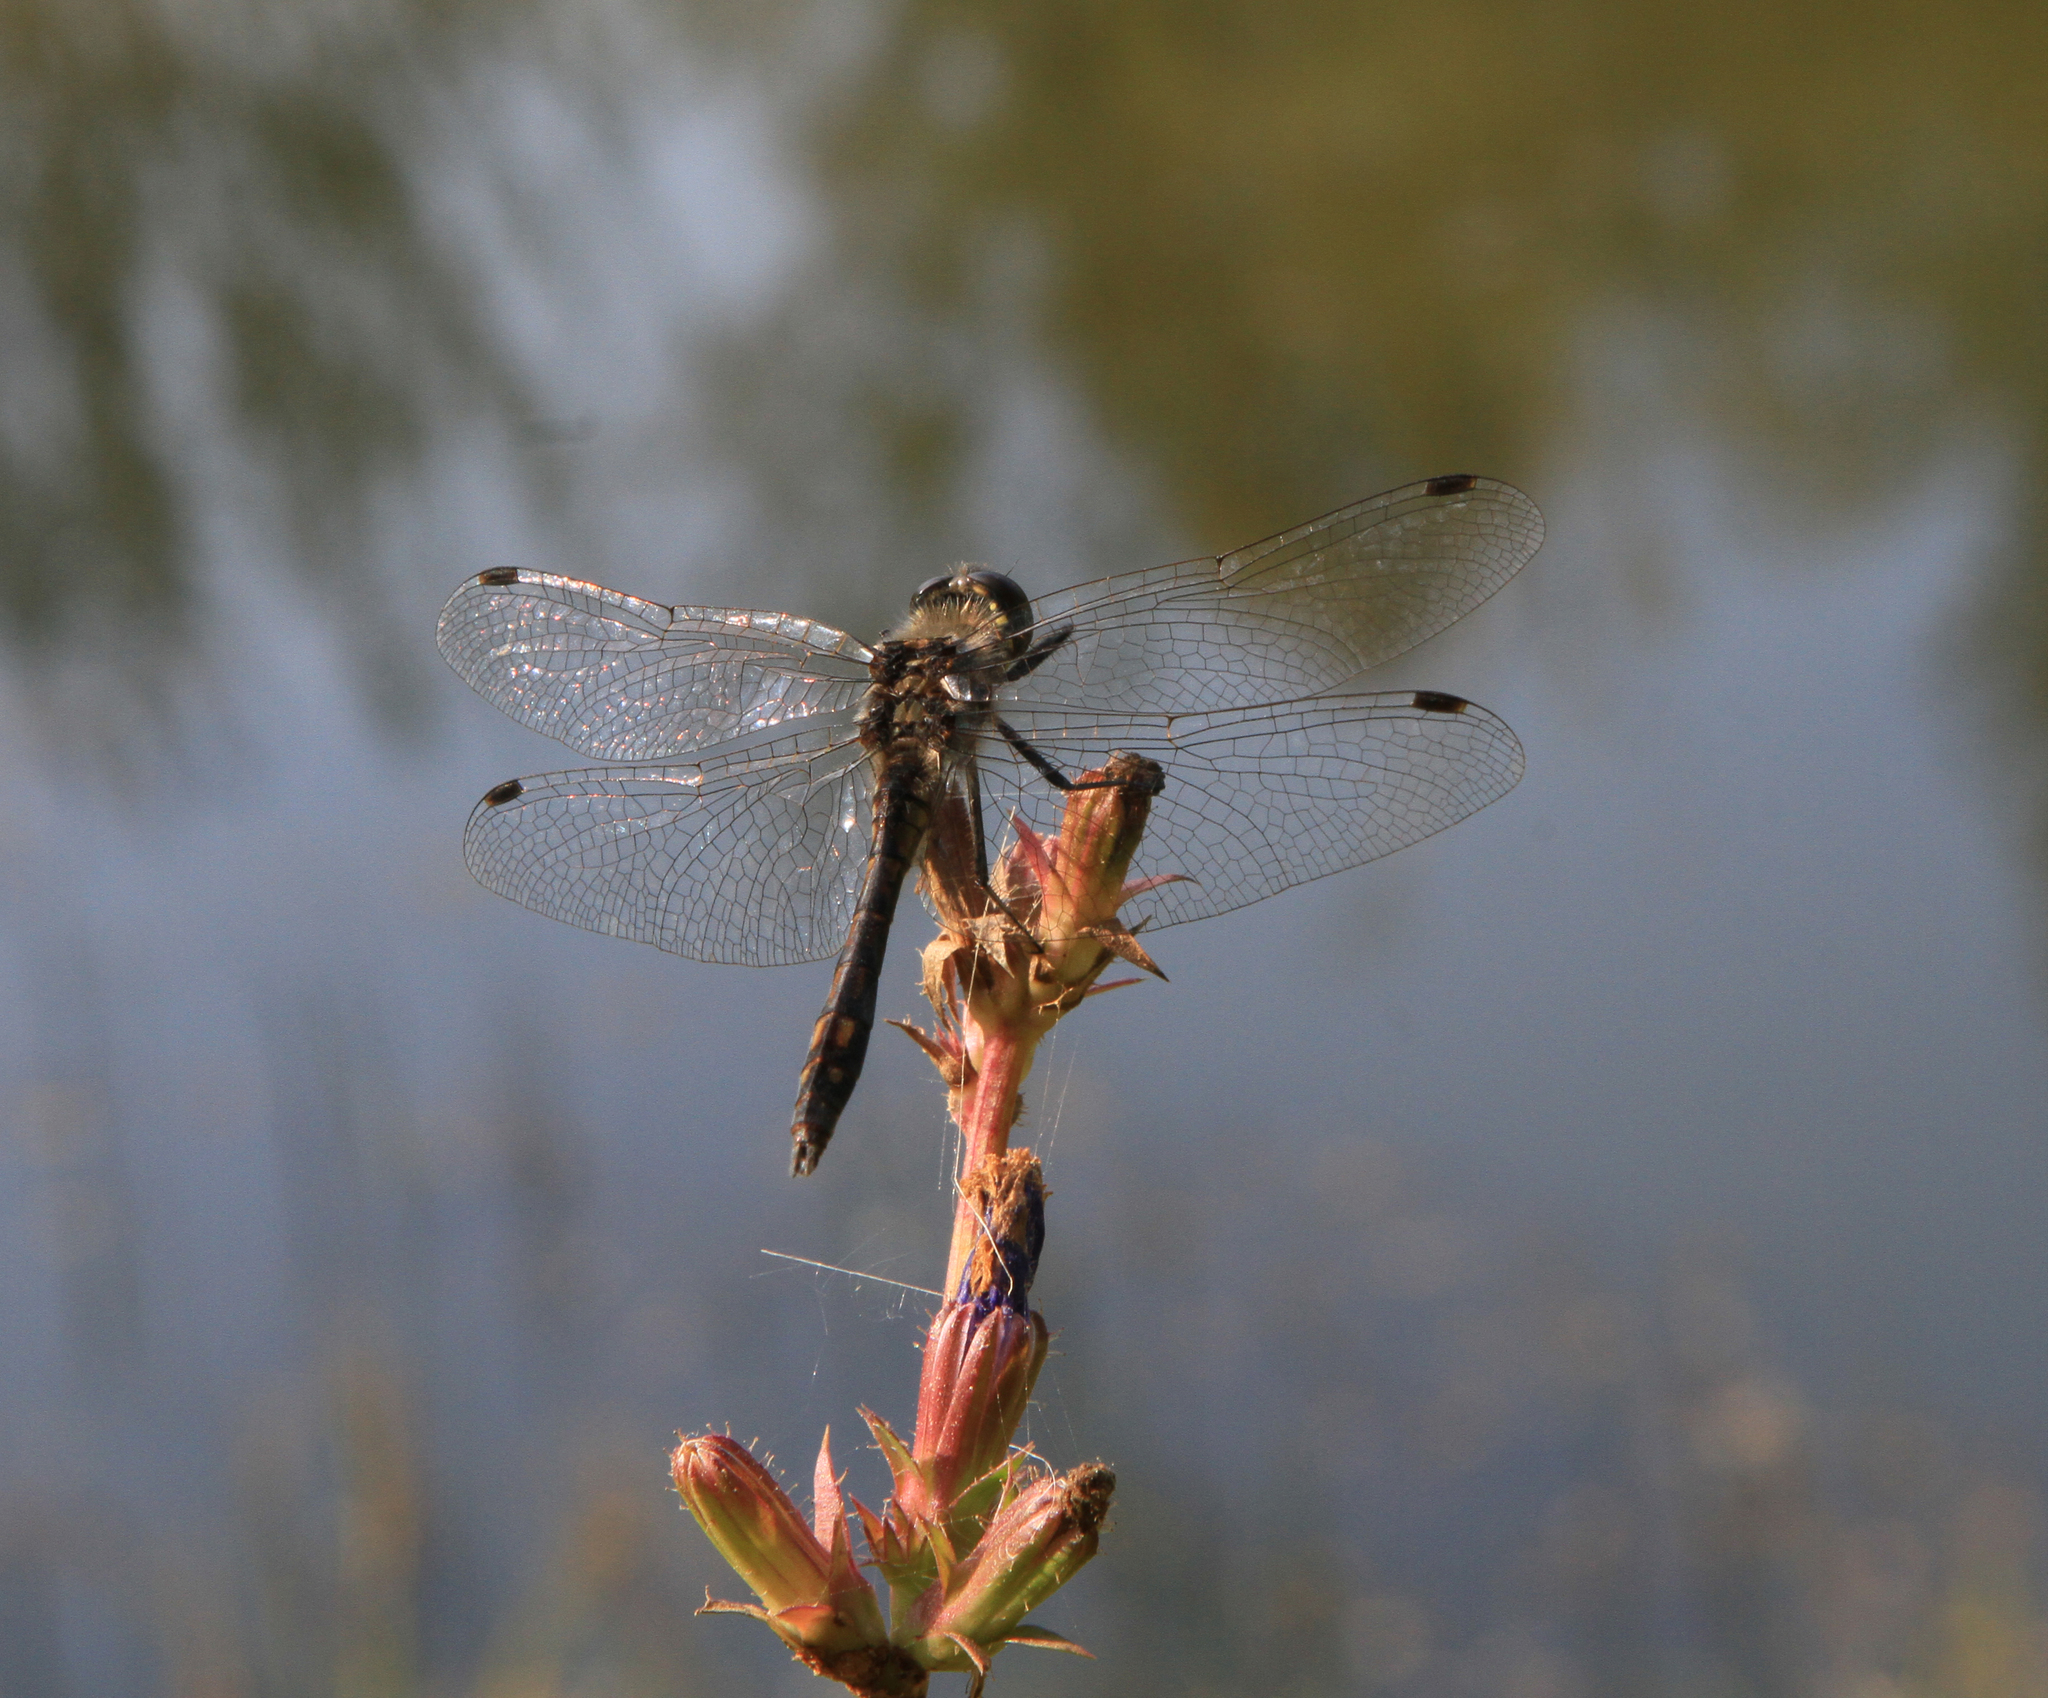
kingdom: Animalia
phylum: Arthropoda
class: Insecta
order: Odonata
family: Libellulidae
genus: Sympetrum
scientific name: Sympetrum danae
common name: Black darter
